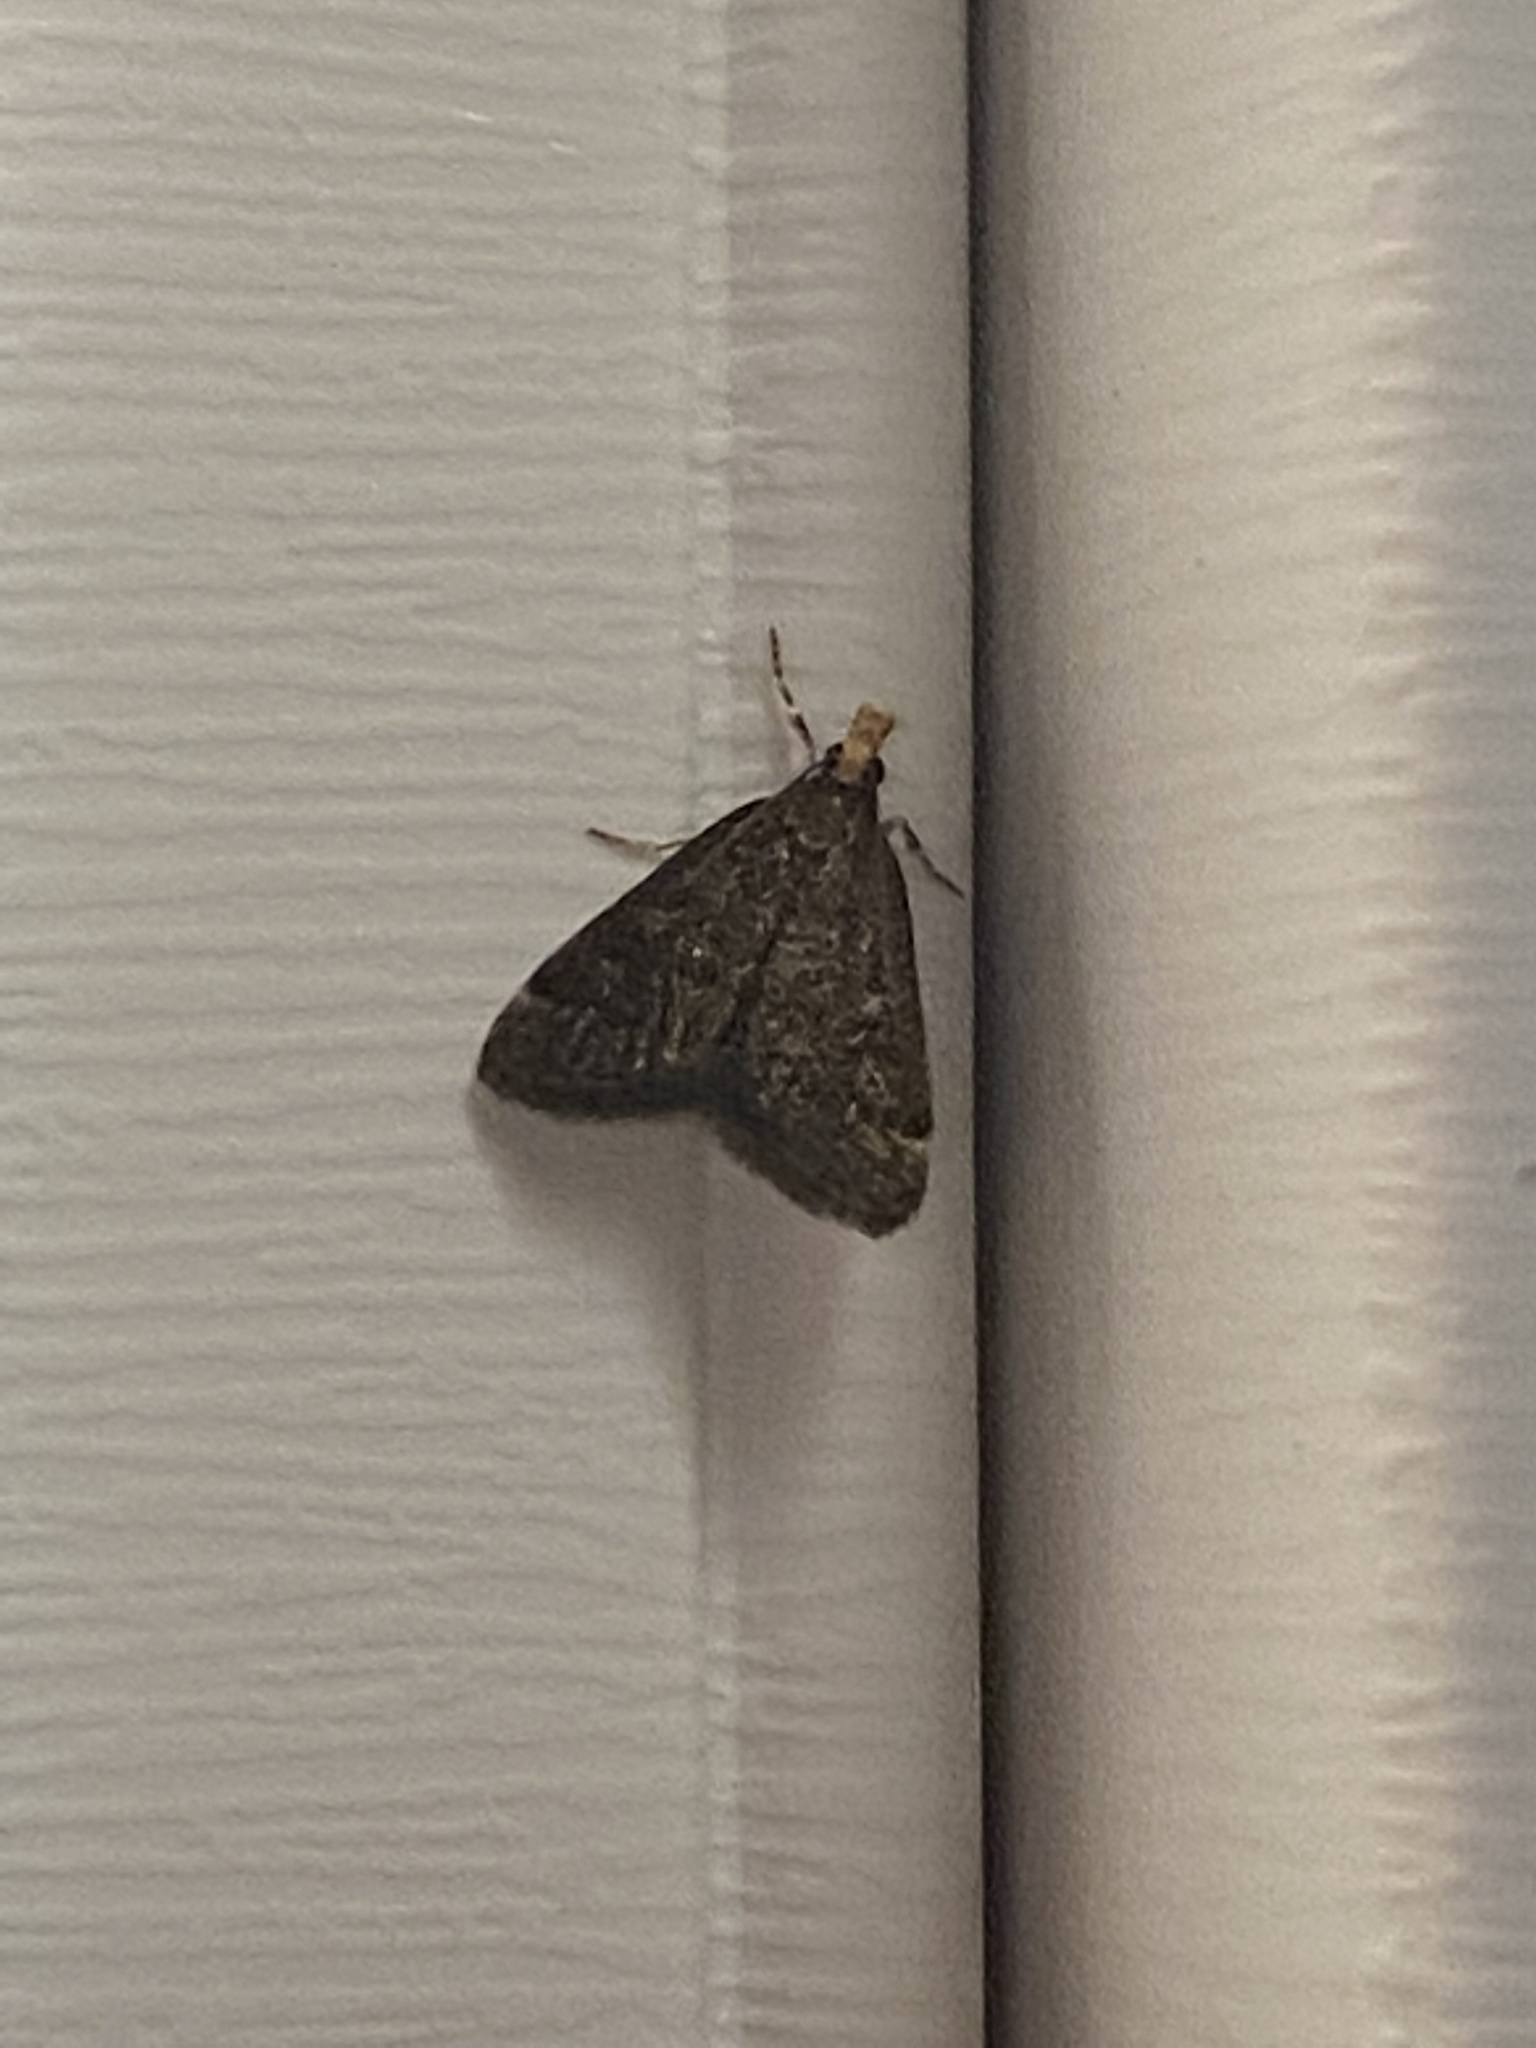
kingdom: Animalia
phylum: Arthropoda
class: Insecta
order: Lepidoptera
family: Crambidae
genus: Pyrausta
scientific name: Pyrausta merrickalis
